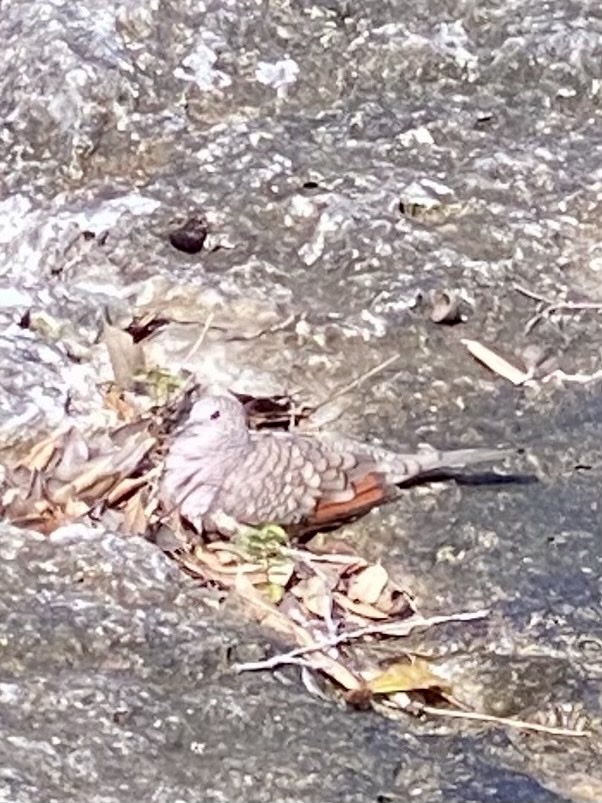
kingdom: Animalia
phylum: Chordata
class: Aves
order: Columbiformes
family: Columbidae
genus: Columbina
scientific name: Columbina inca
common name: Inca dove
